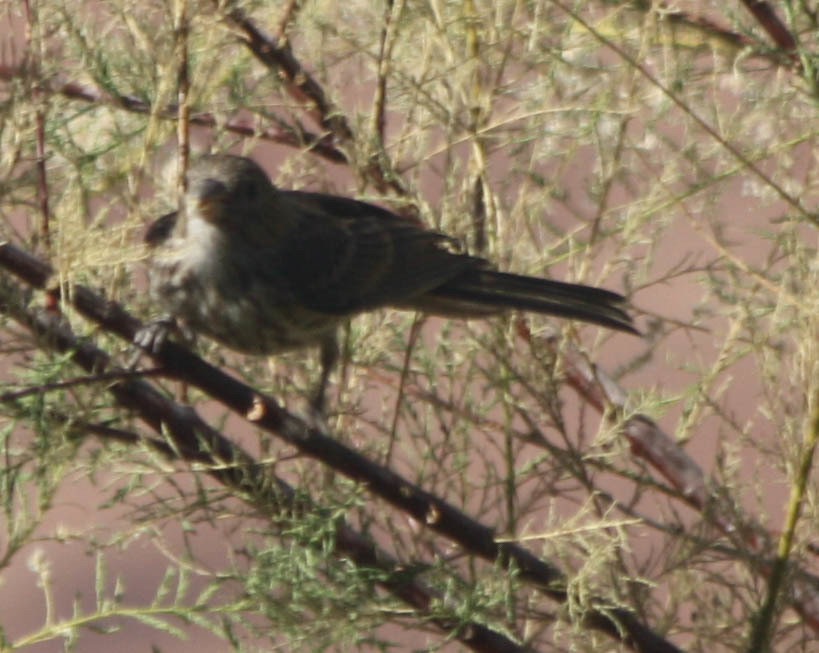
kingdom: Animalia
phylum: Chordata
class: Aves
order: Passeriformes
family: Fringillidae
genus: Haemorhous
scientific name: Haemorhous mexicanus
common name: House finch
